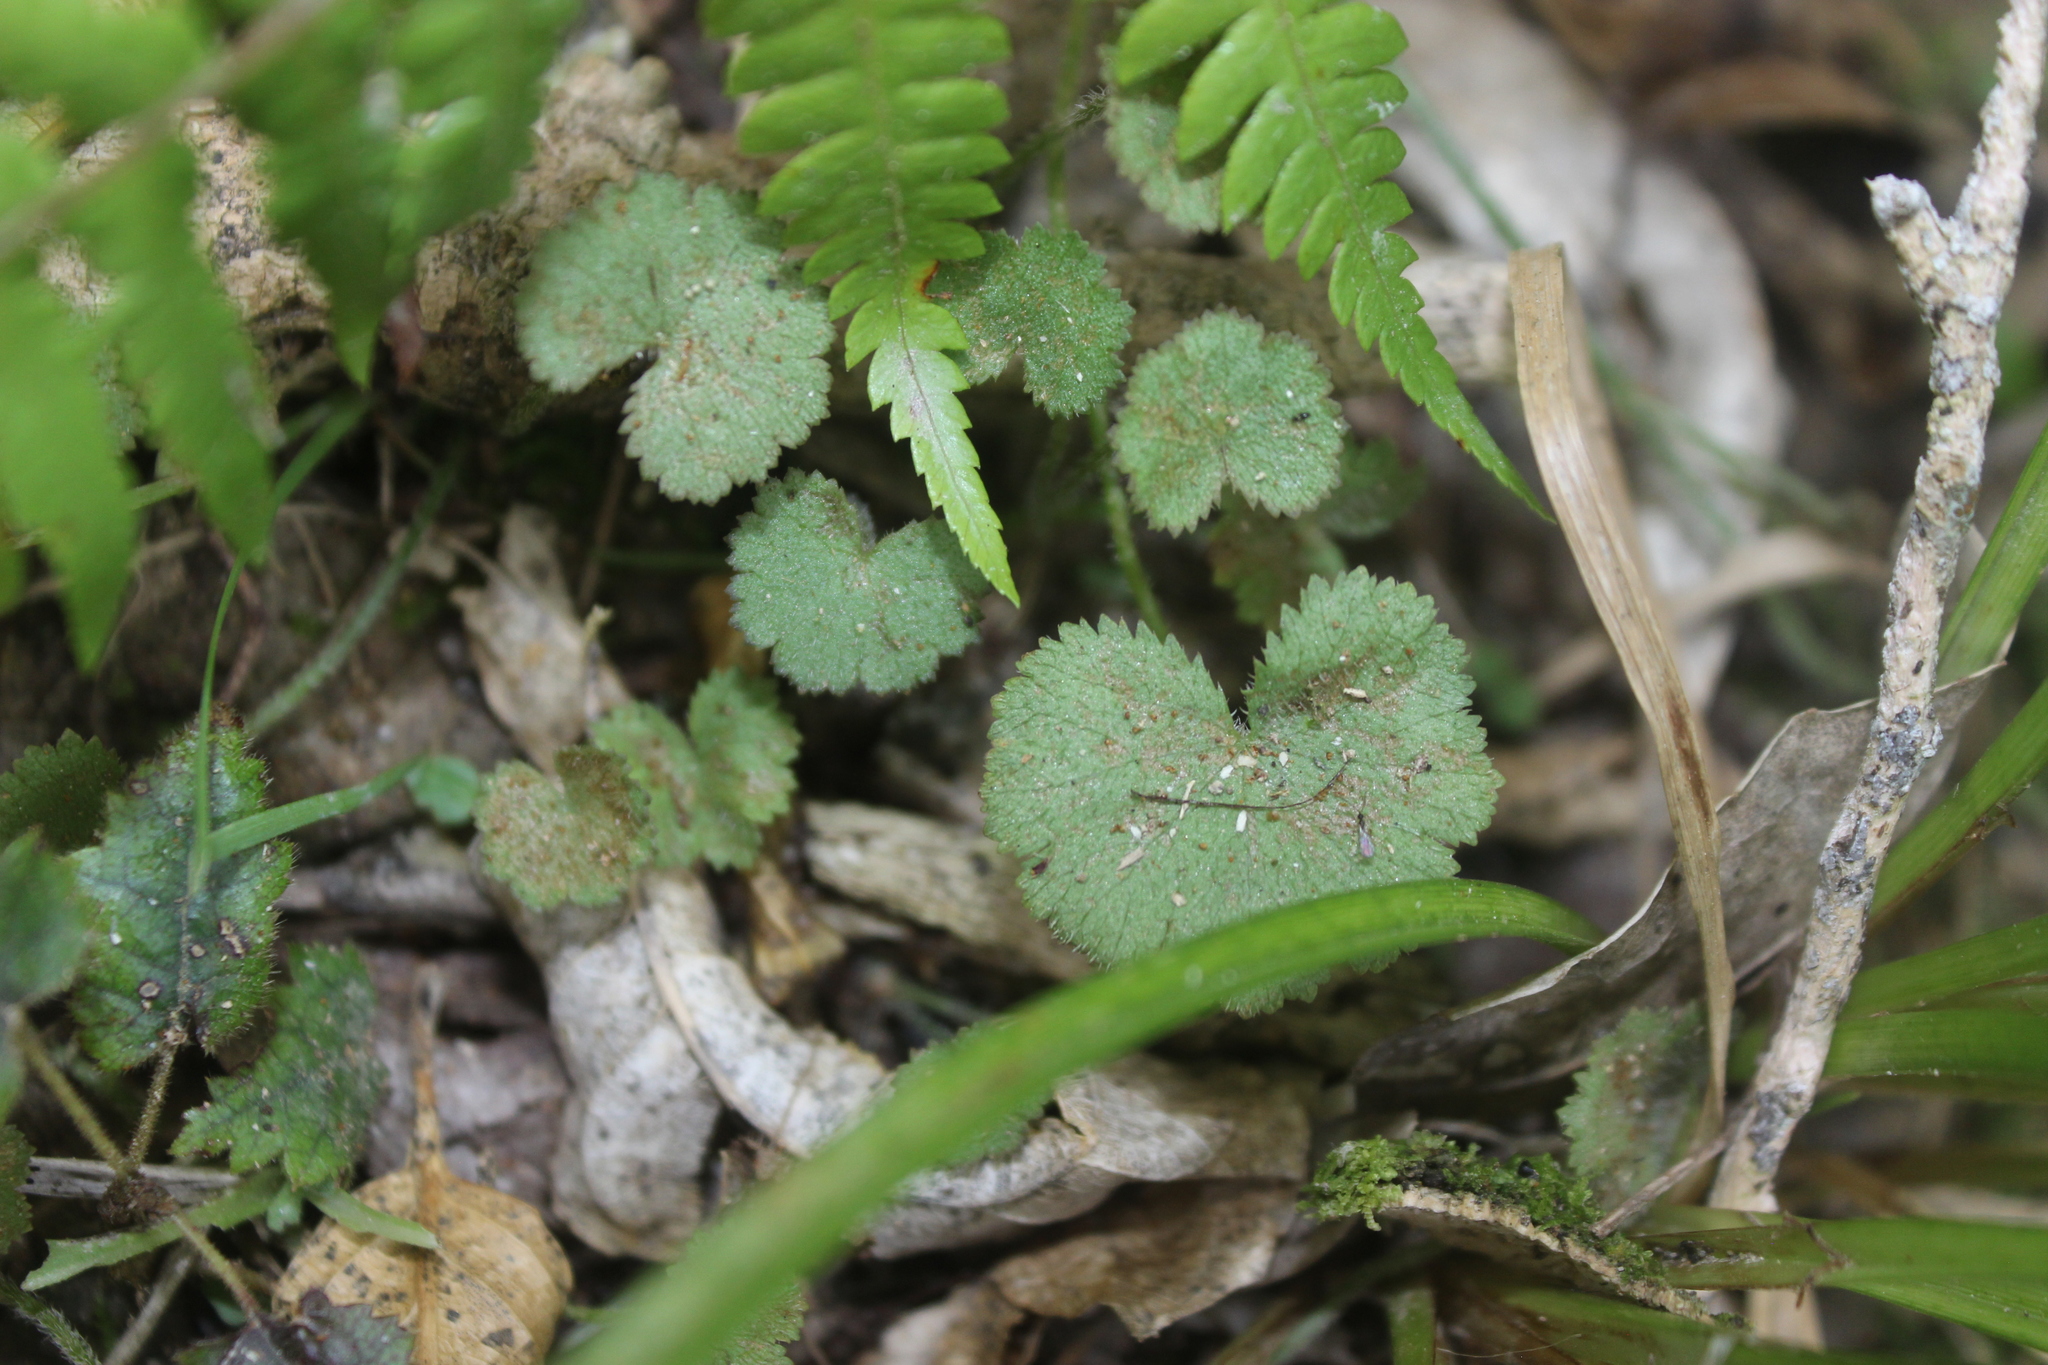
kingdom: Plantae
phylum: Tracheophyta
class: Magnoliopsida
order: Apiales
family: Araliaceae
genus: Hydrocotyle
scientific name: Hydrocotyle moschata
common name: Hairy pennywort
